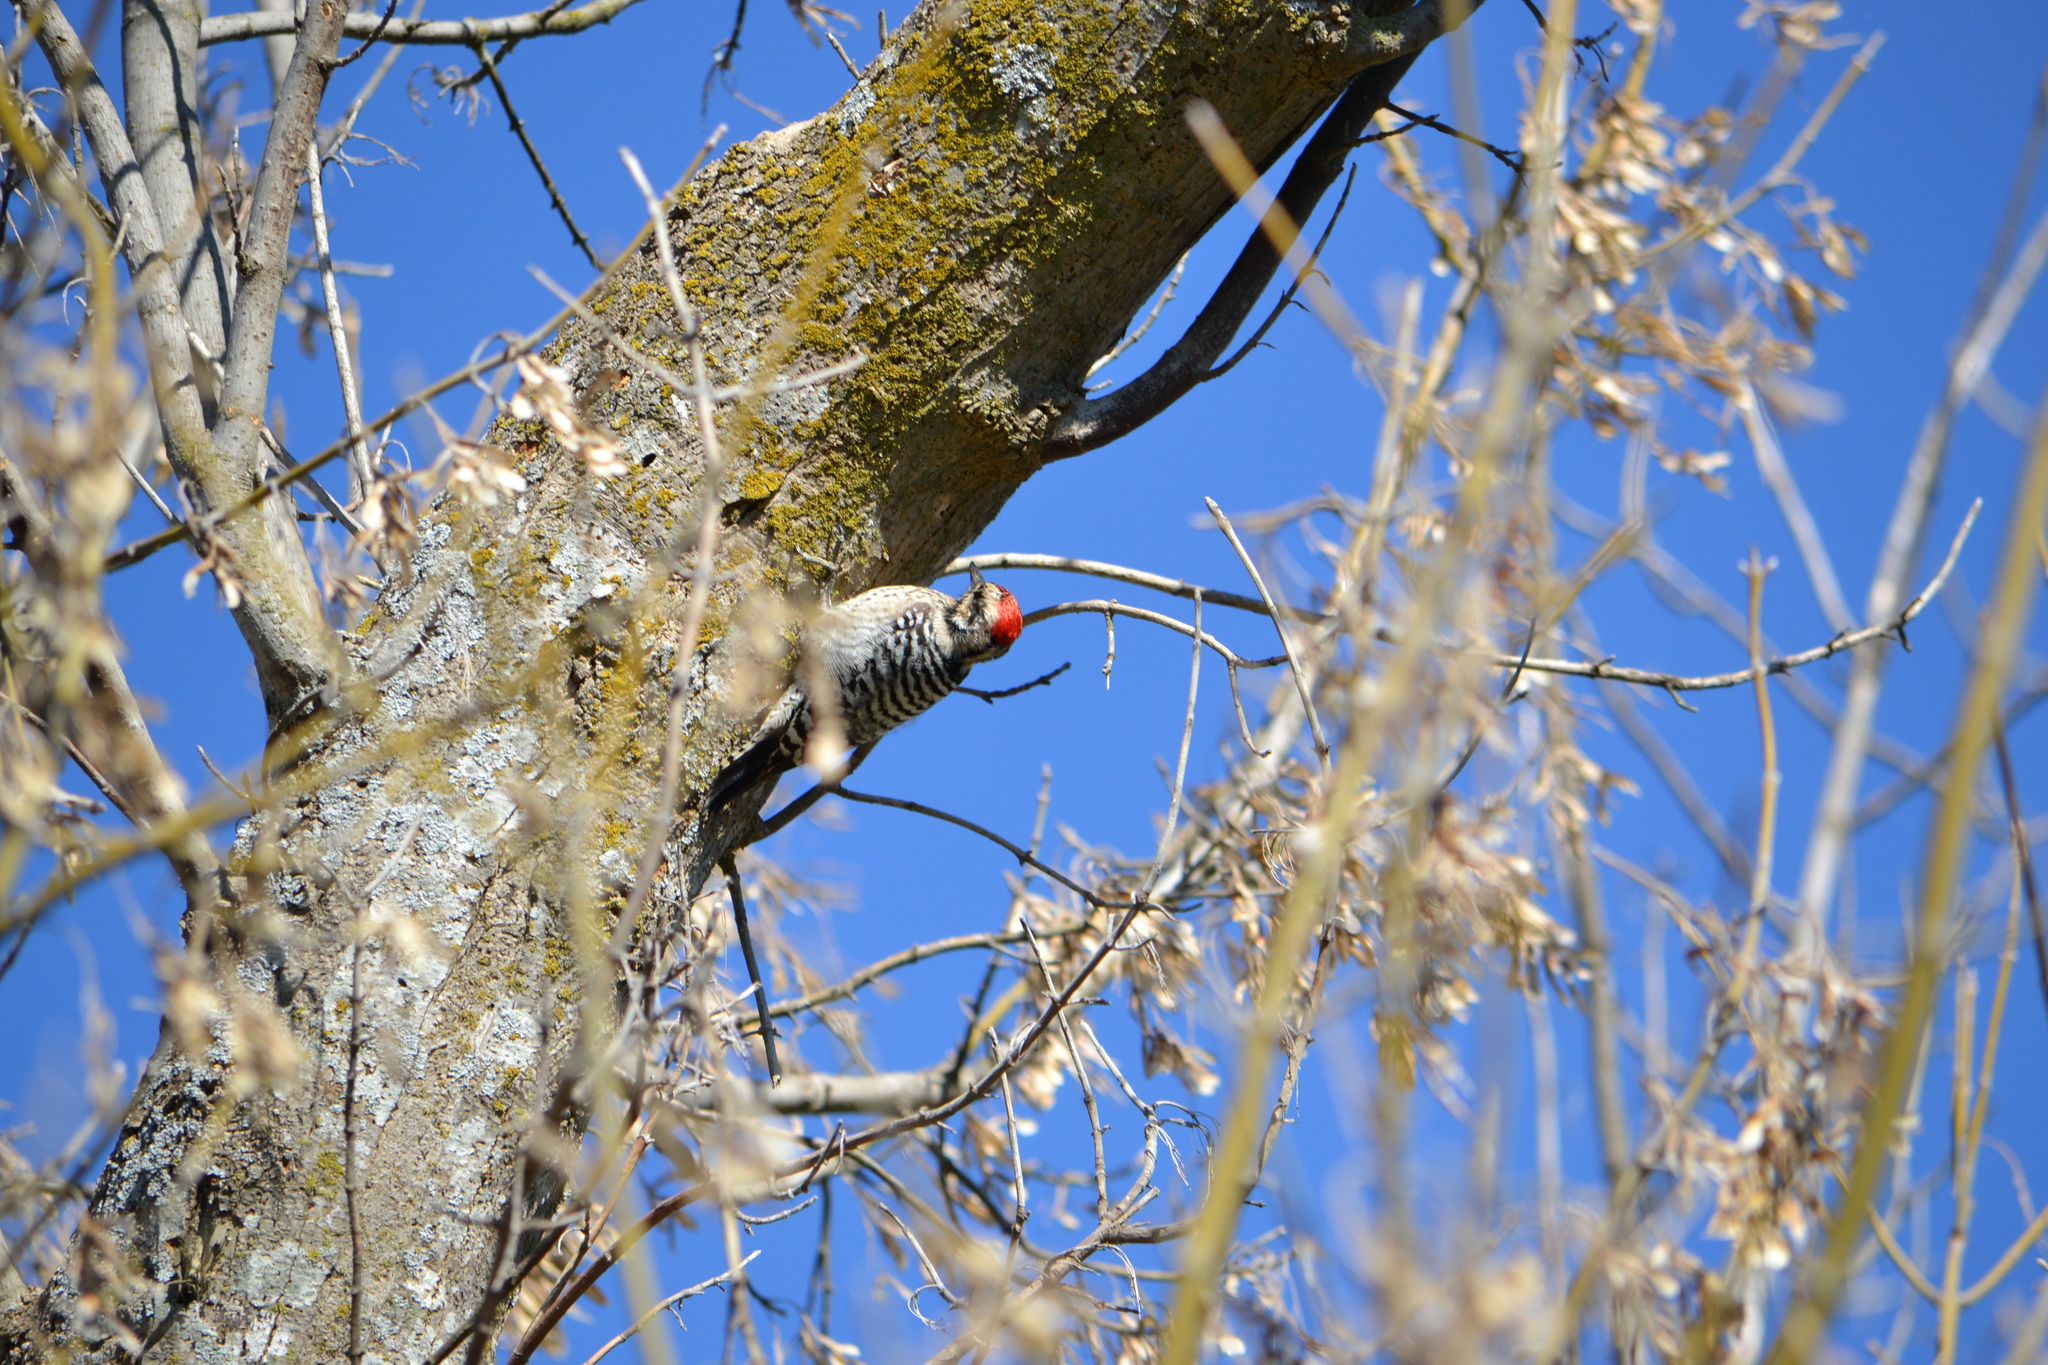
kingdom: Animalia
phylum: Chordata
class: Aves
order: Piciformes
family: Picidae
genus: Dryobates
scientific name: Dryobates scalaris
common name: Ladder-backed woodpecker
